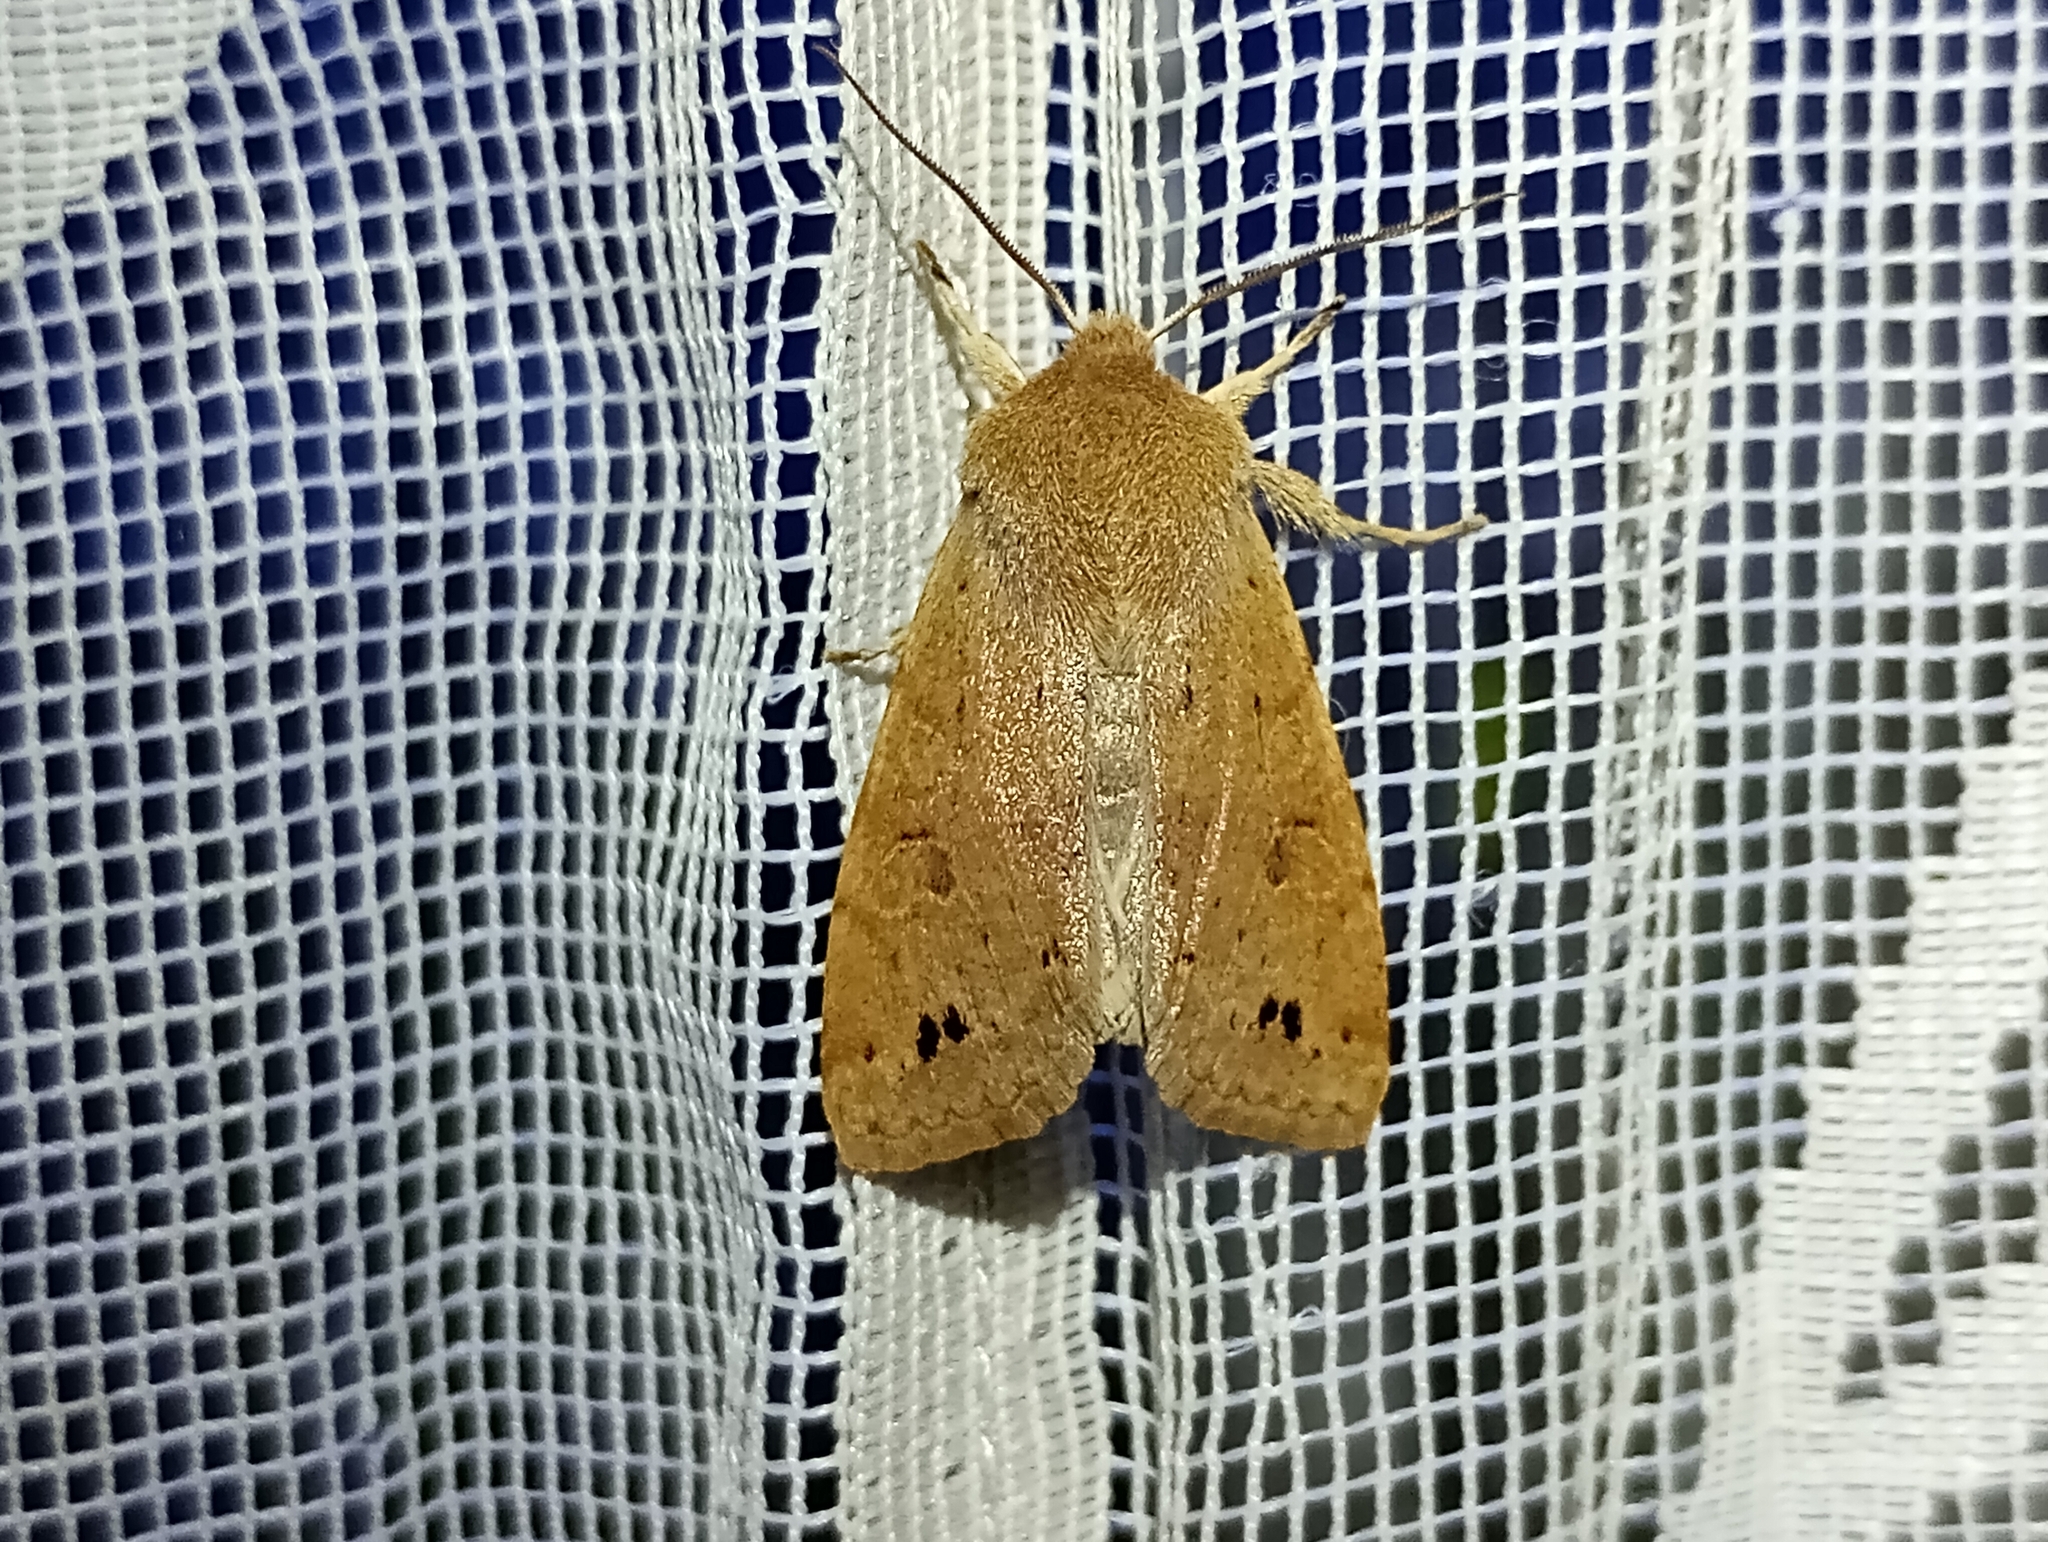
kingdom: Animalia
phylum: Arthropoda
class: Insecta
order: Lepidoptera
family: Noctuidae
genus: Anorthoa
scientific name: Anorthoa munda
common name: Twin-spotted quaker
